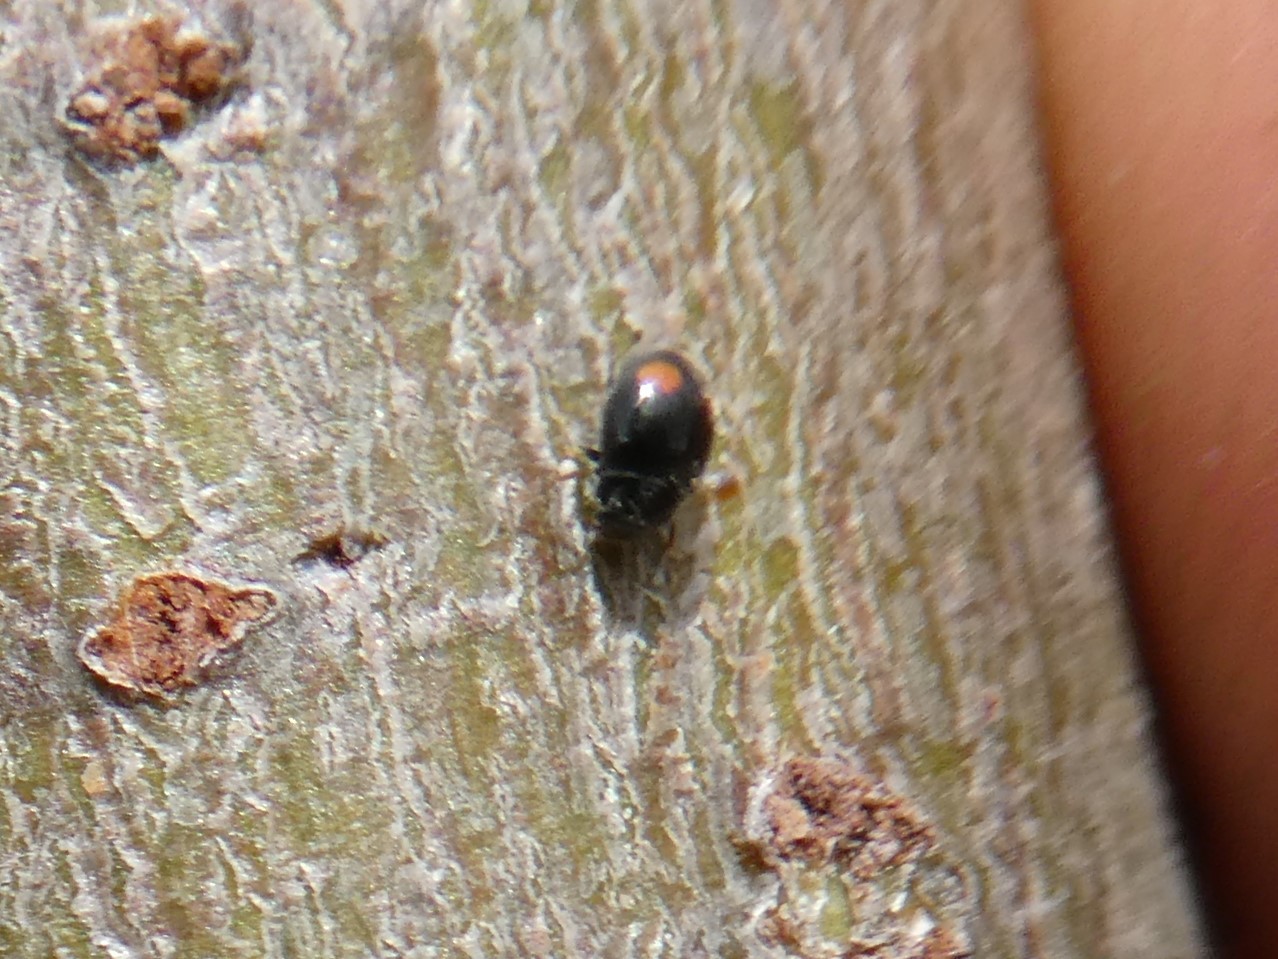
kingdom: Animalia
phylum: Arthropoda
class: Insecta
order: Coleoptera
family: Coccinellidae
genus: Nephus
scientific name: Nephus flavifrons
